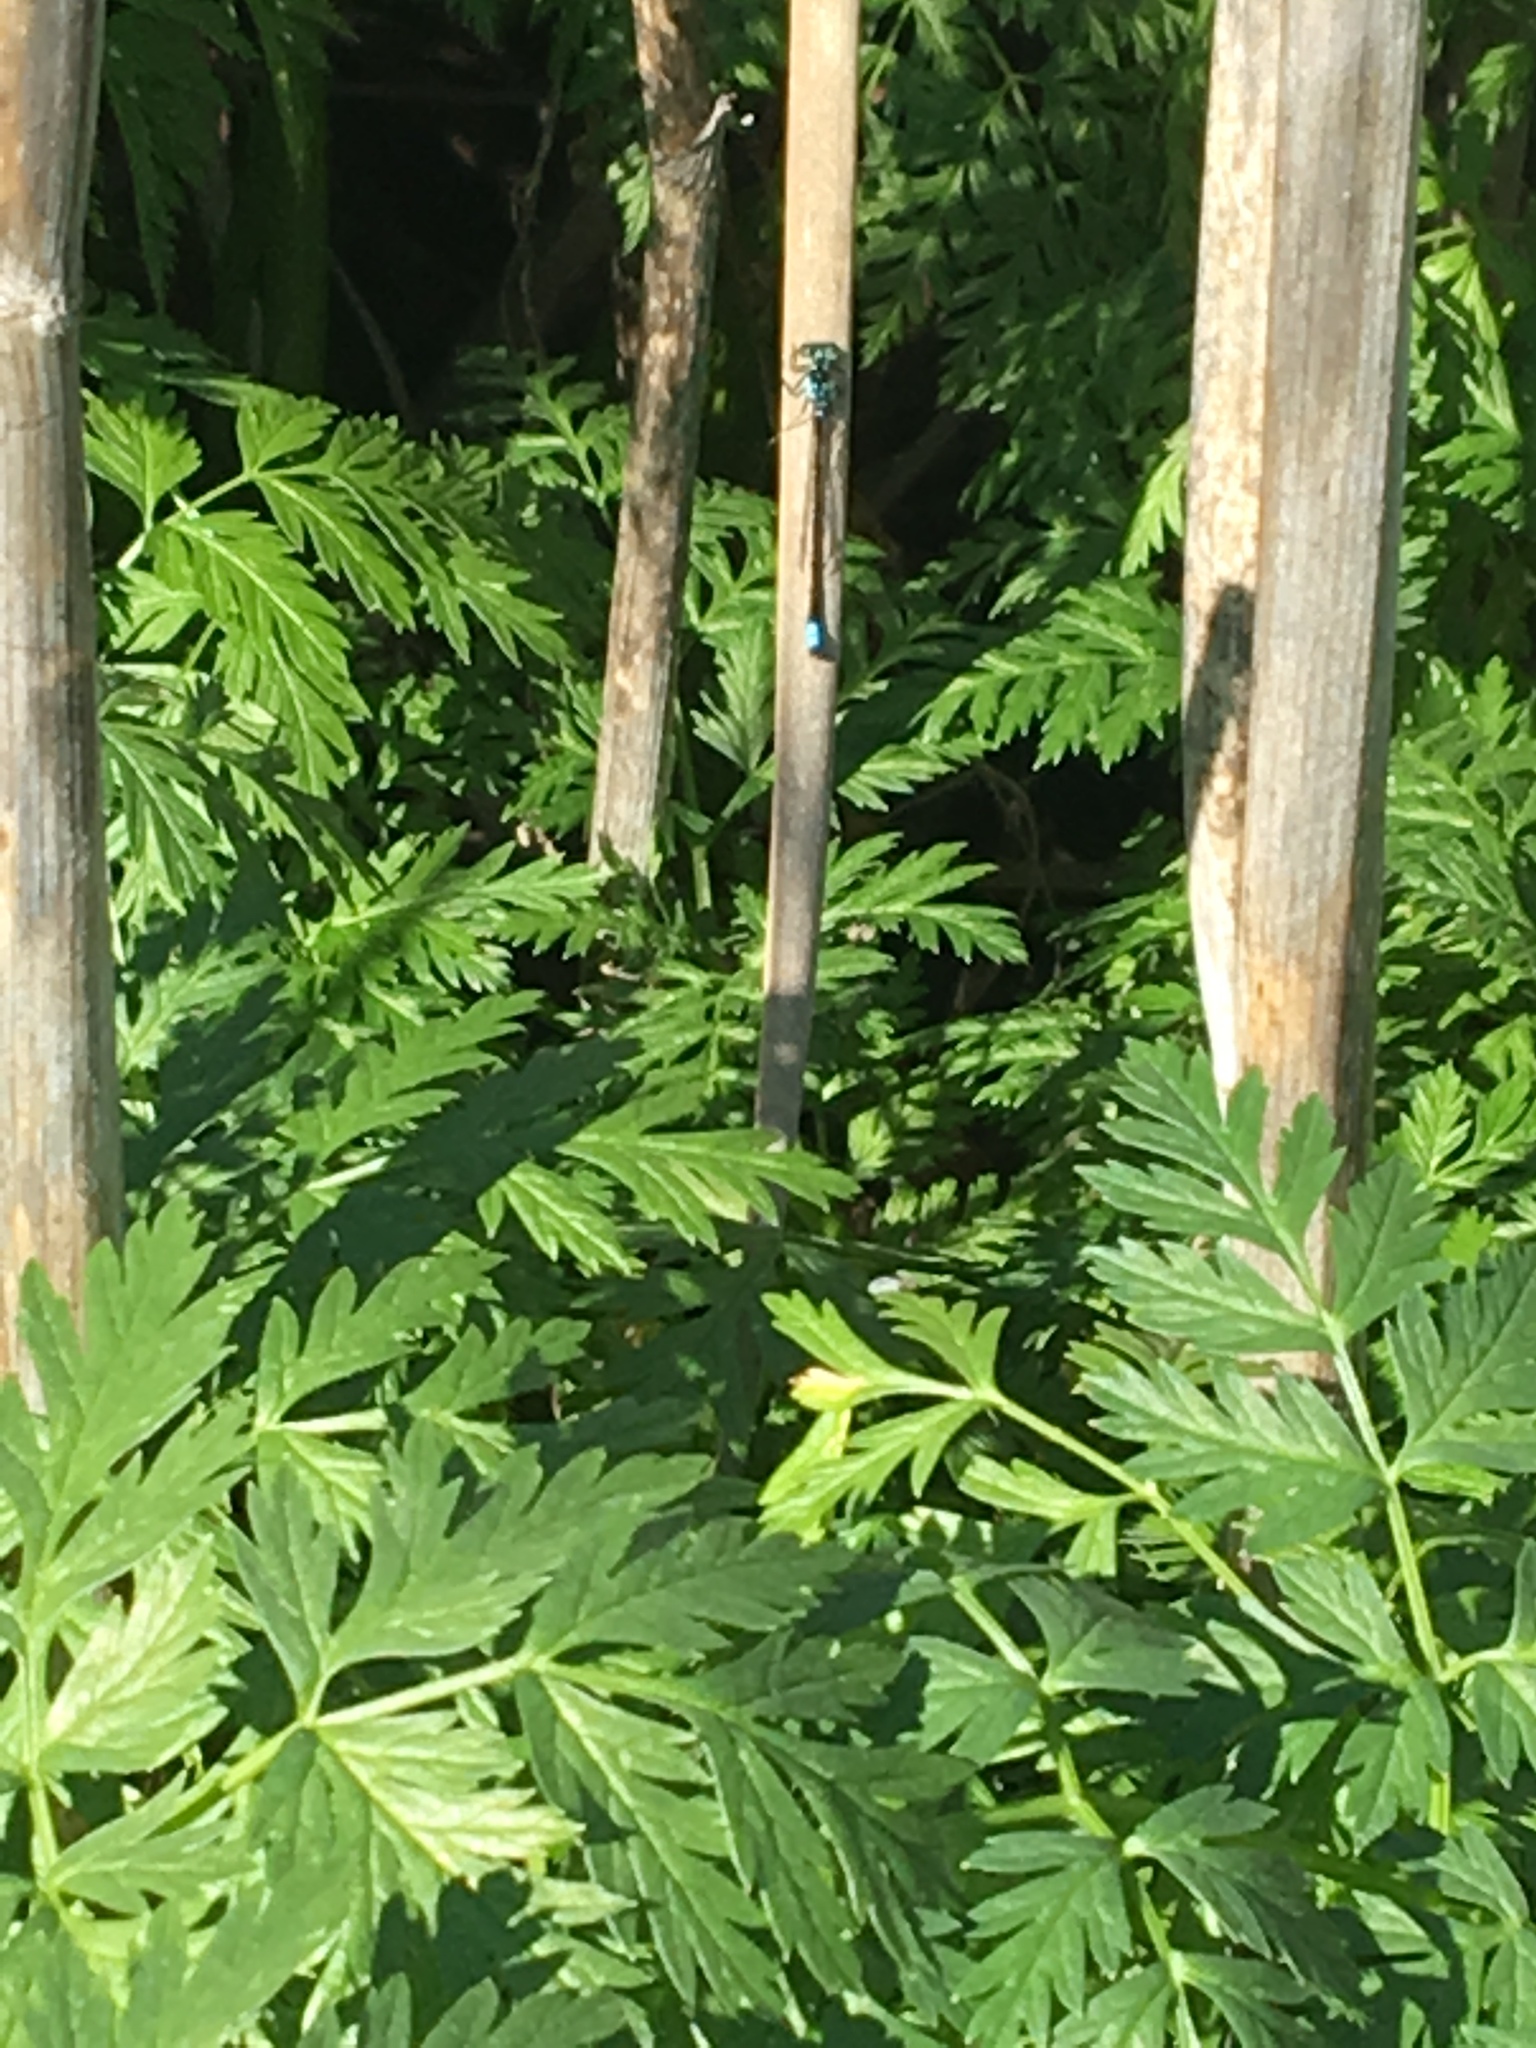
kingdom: Animalia
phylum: Arthropoda
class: Insecta
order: Odonata
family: Coenagrionidae
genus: Ischnura
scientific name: Ischnura cervula
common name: Pacific forktail
